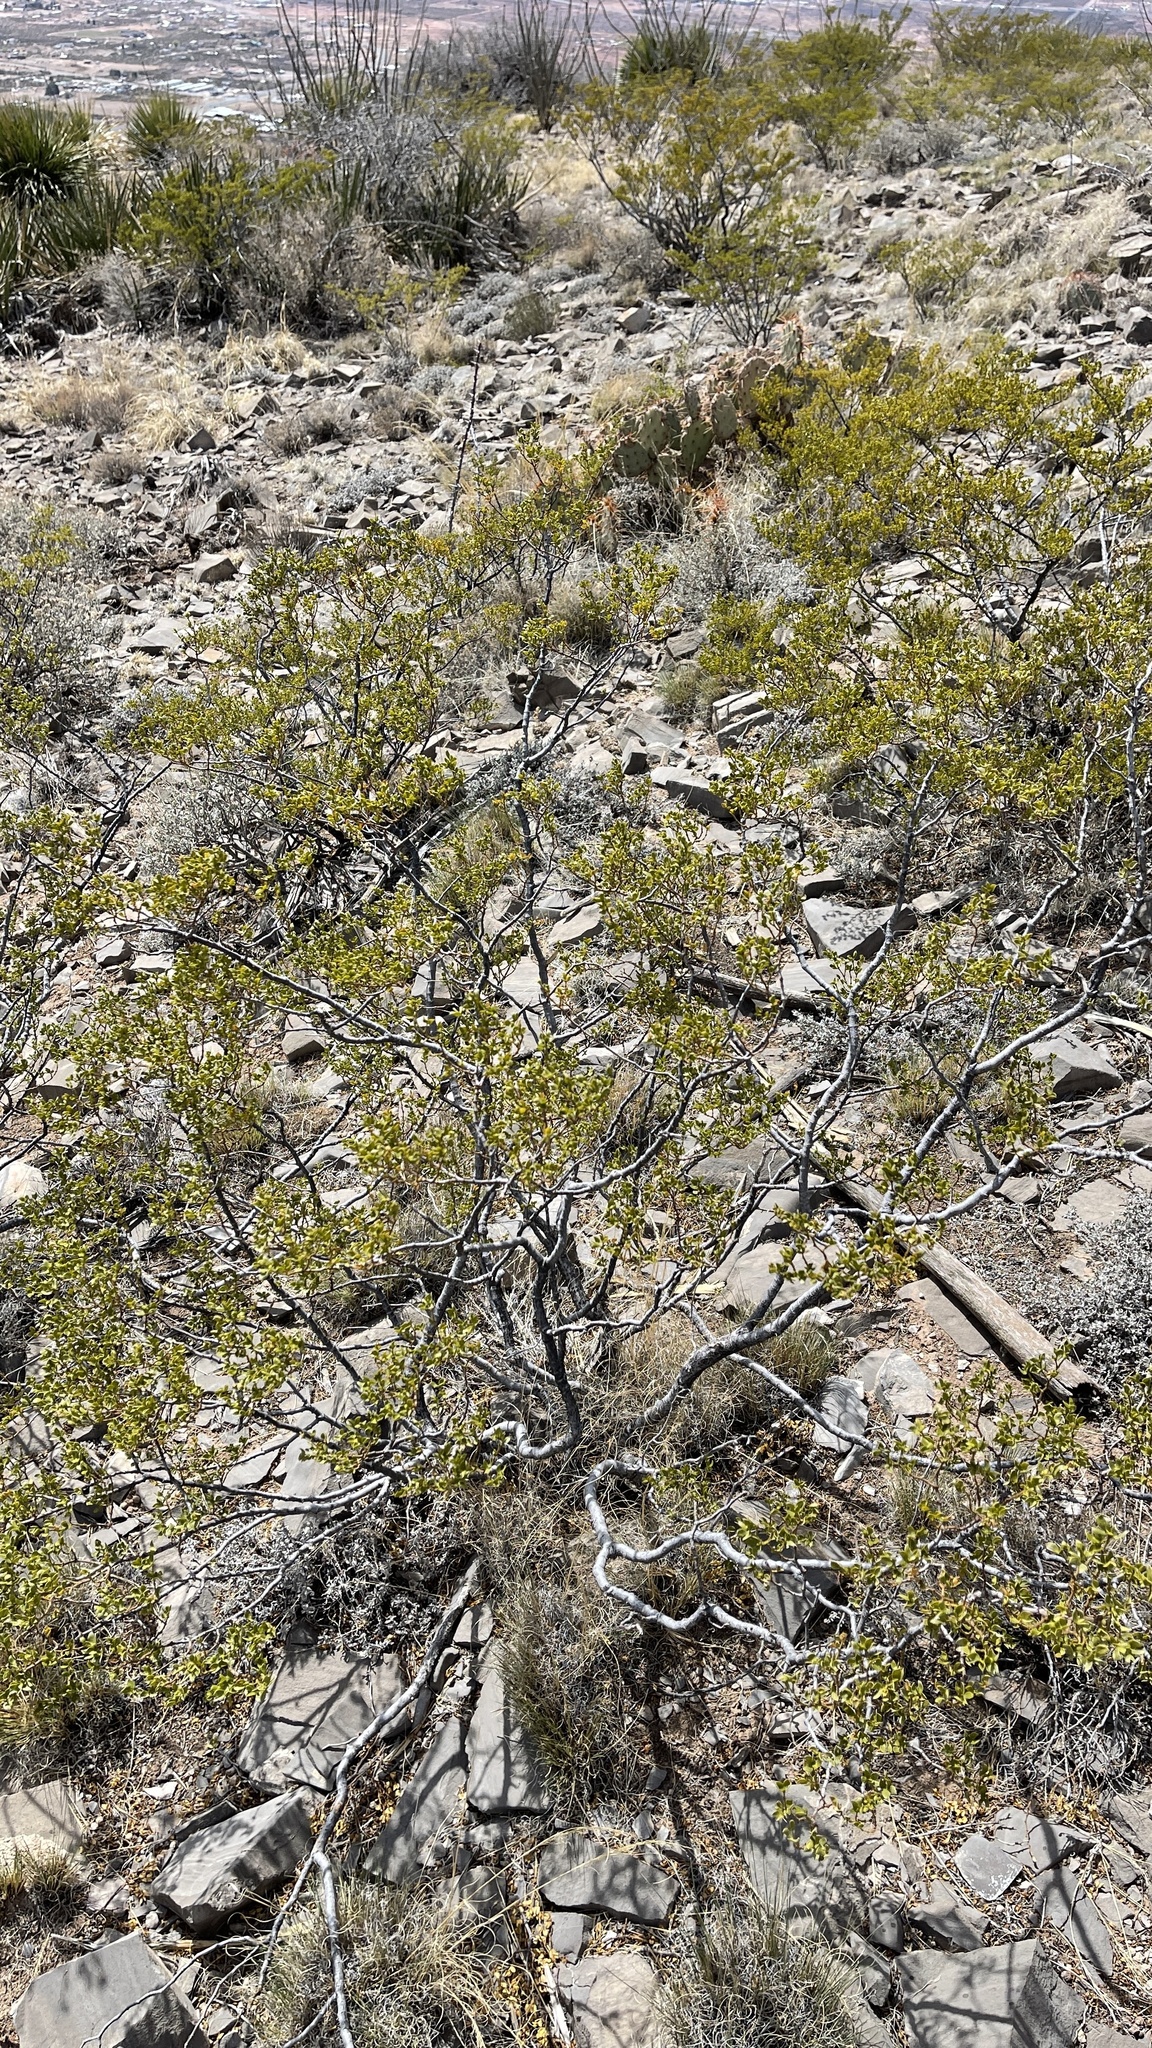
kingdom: Plantae
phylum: Tracheophyta
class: Magnoliopsida
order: Zygophyllales
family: Zygophyllaceae
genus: Larrea
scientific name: Larrea tridentata
